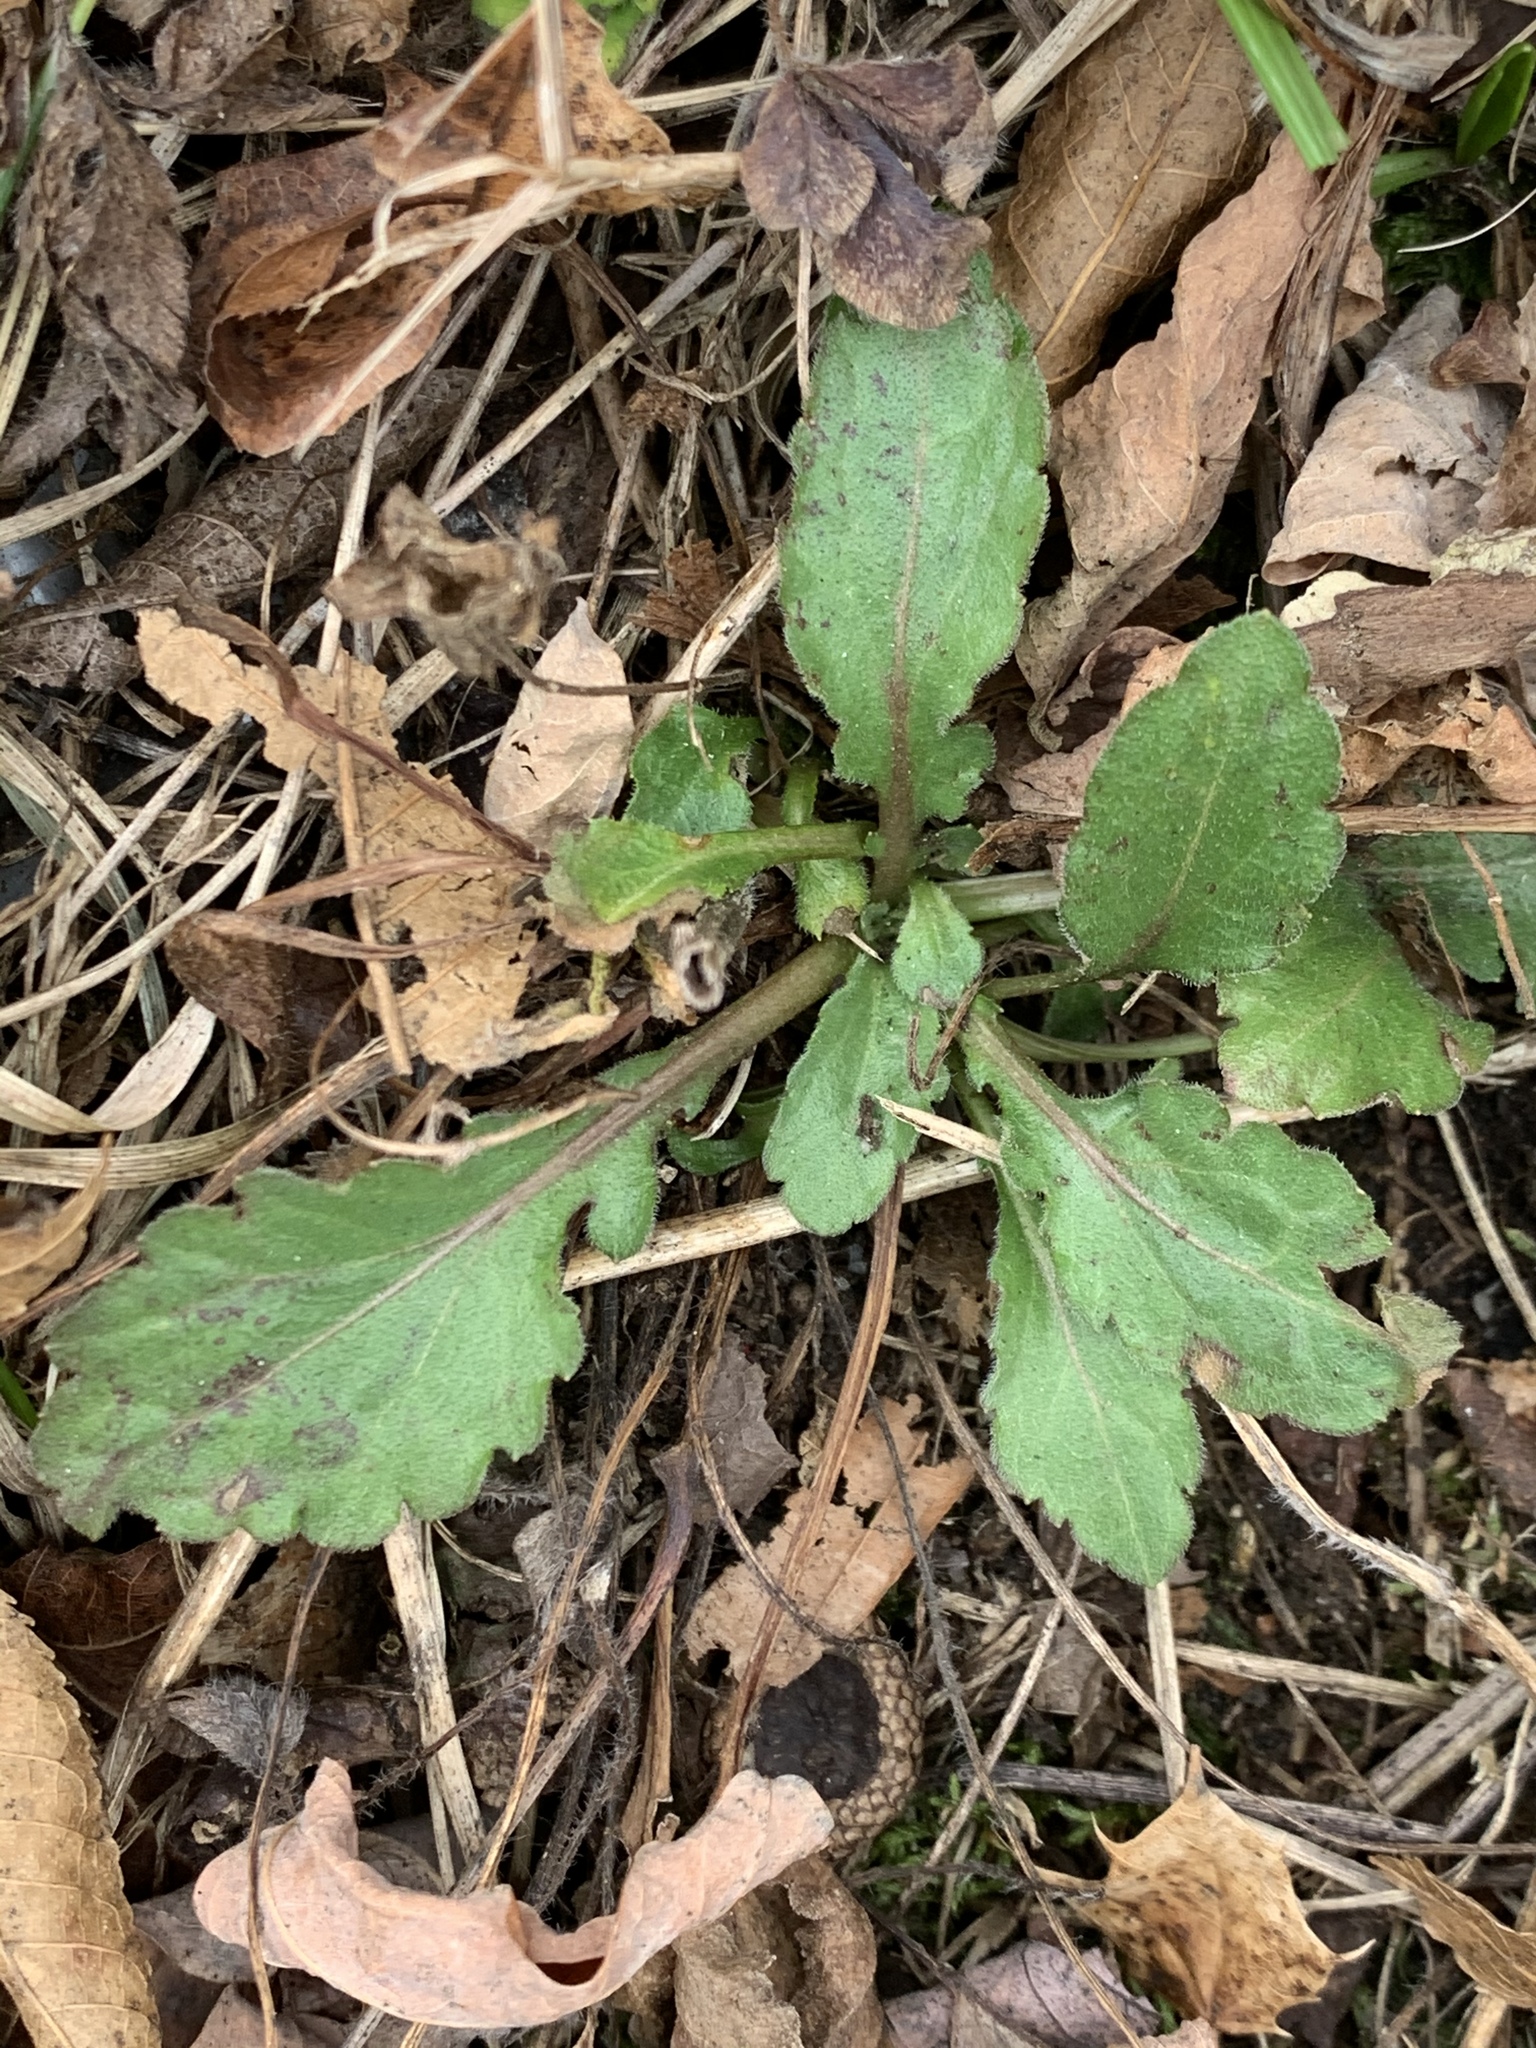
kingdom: Plantae
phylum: Tracheophyta
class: Magnoliopsida
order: Asterales
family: Asteraceae
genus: Erigeron
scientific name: Erigeron canadensis
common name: Canadian fleabane
